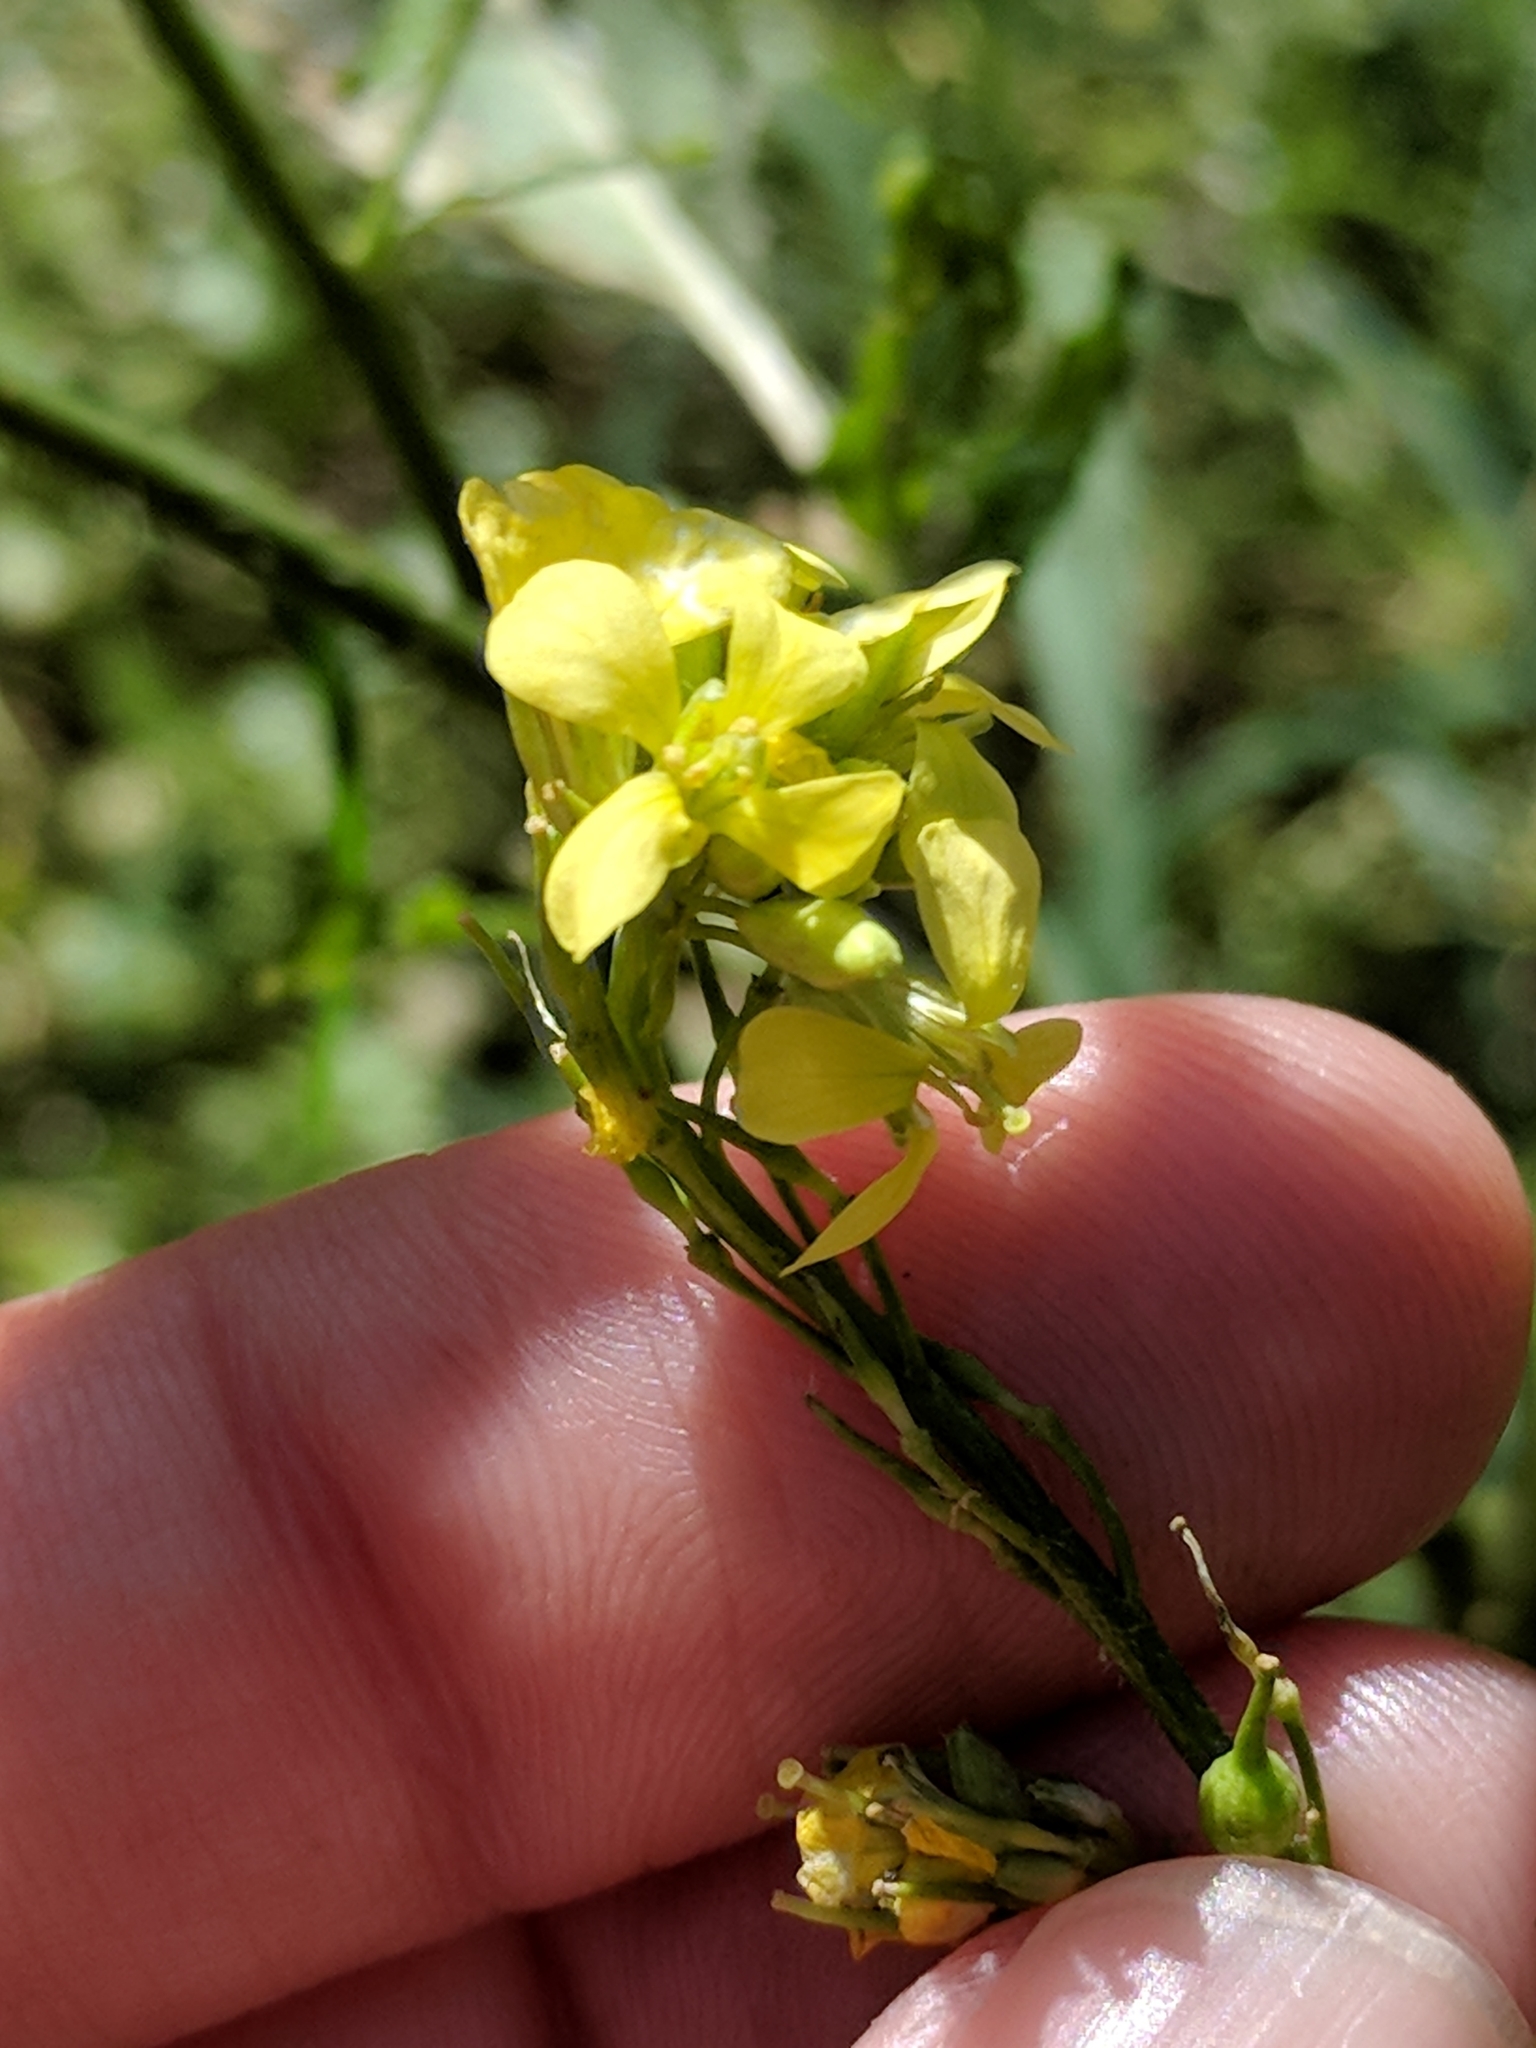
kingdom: Plantae
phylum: Tracheophyta
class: Magnoliopsida
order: Brassicales
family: Brassicaceae
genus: Rapistrum
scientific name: Rapistrum rugosum
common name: Annual bastardcabbage
